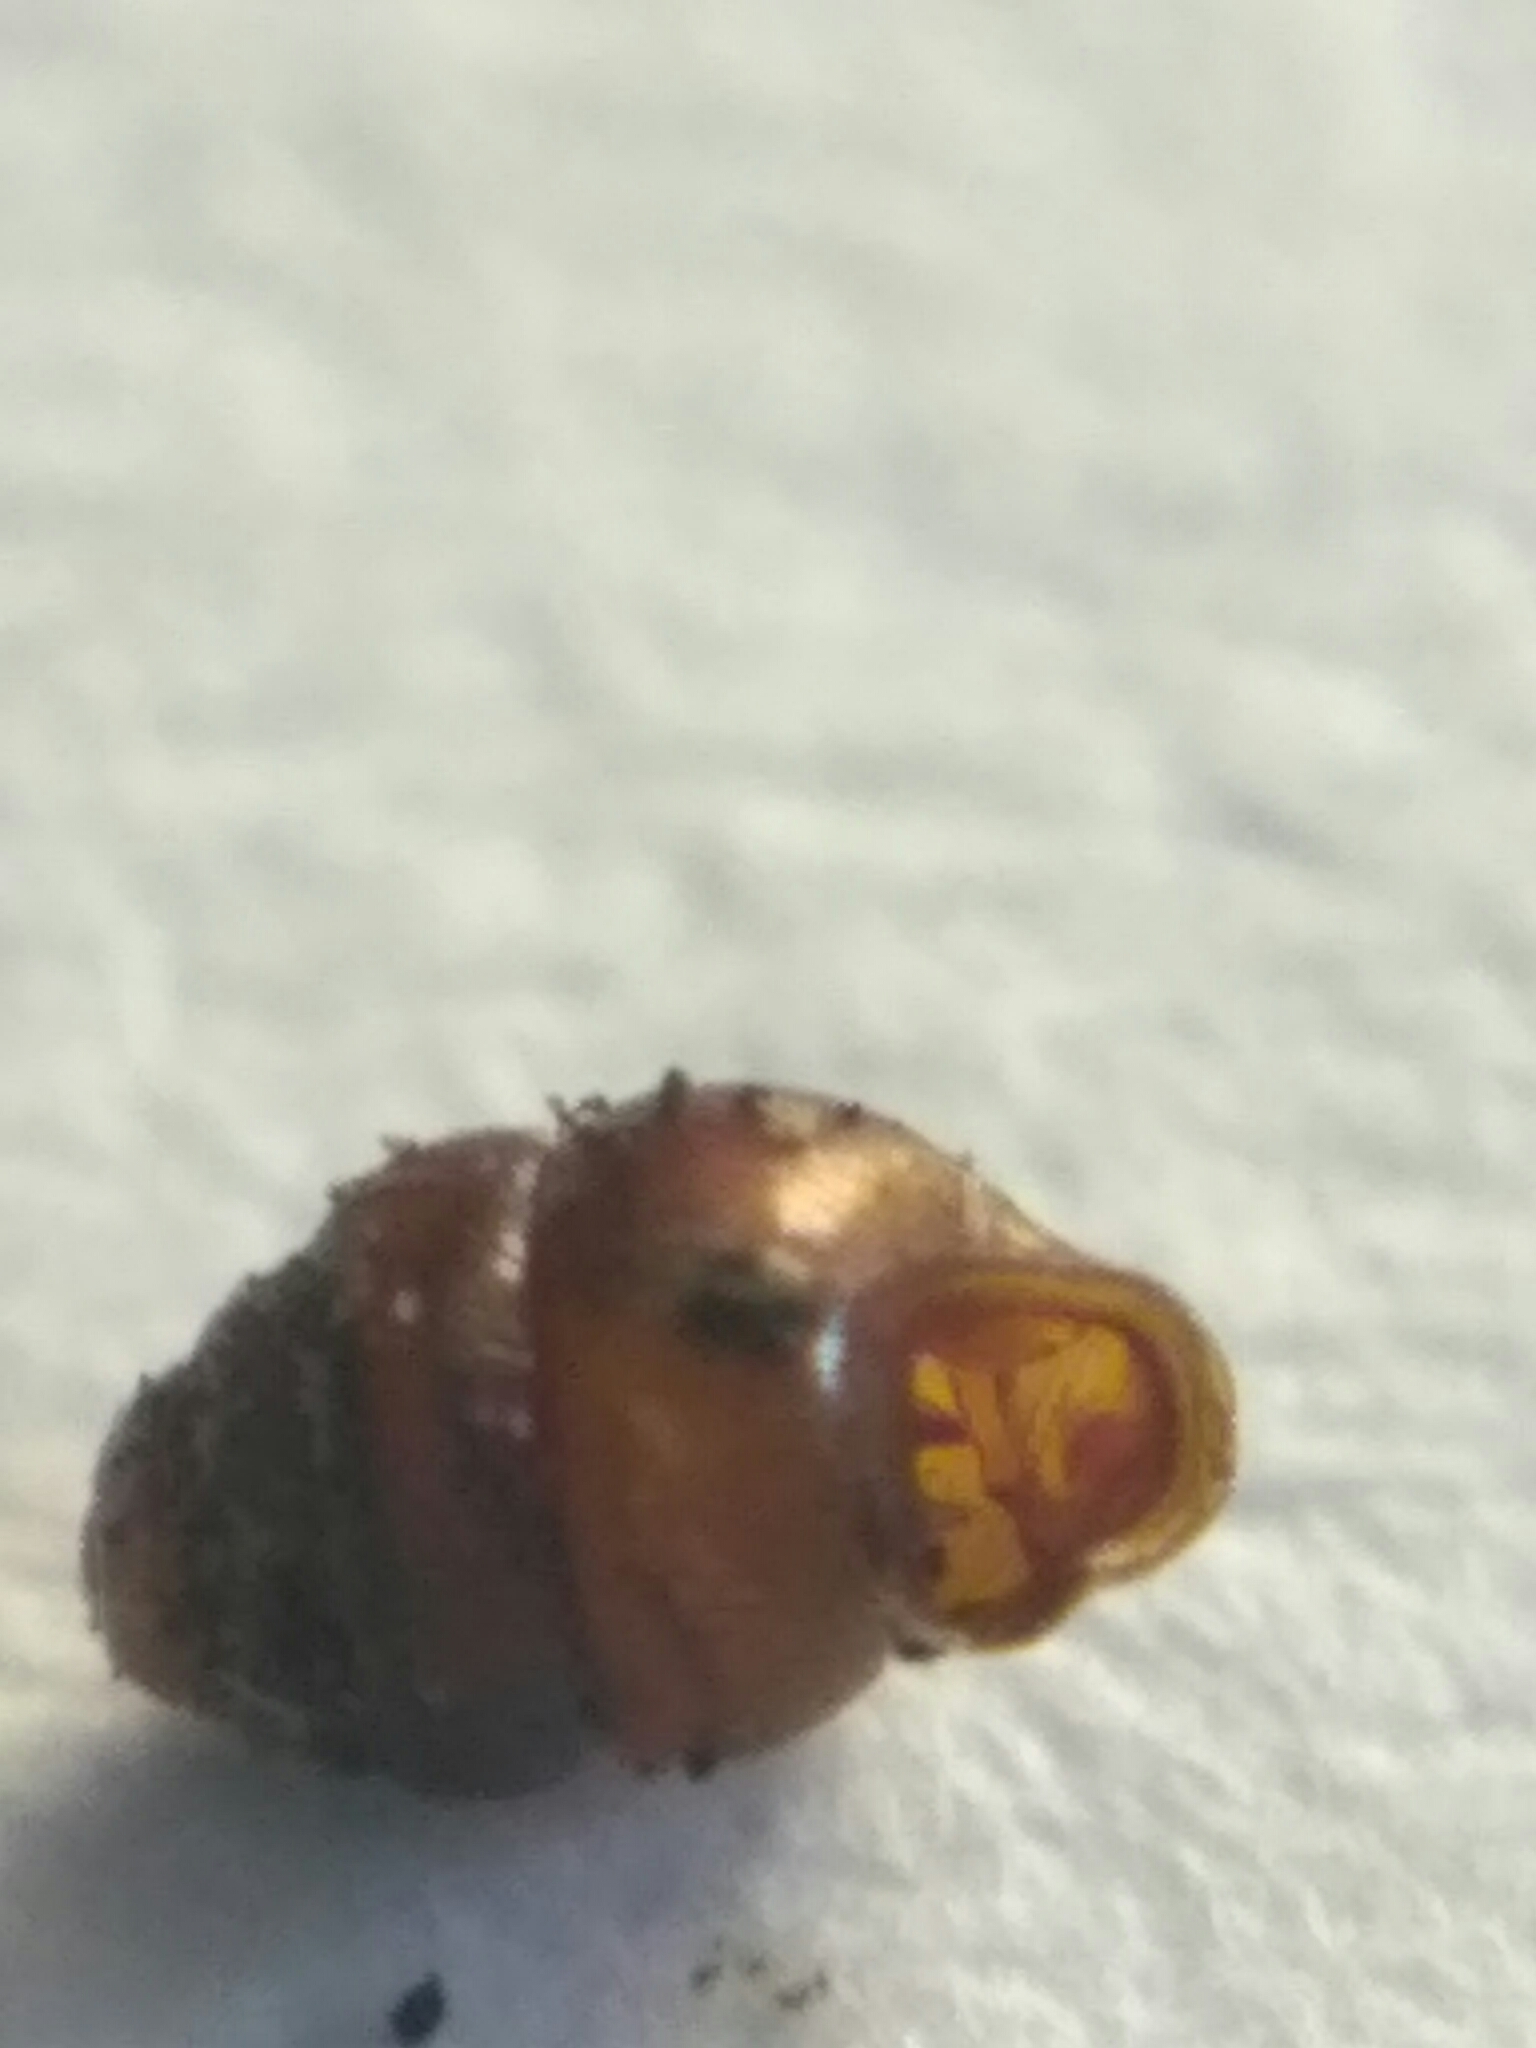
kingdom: Animalia
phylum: Mollusca
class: Gastropoda
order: Stylommatophora
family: Vertiginidae
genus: Vertigo
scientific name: Vertigo angustior
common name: Narrow-mouthed whorl snail
